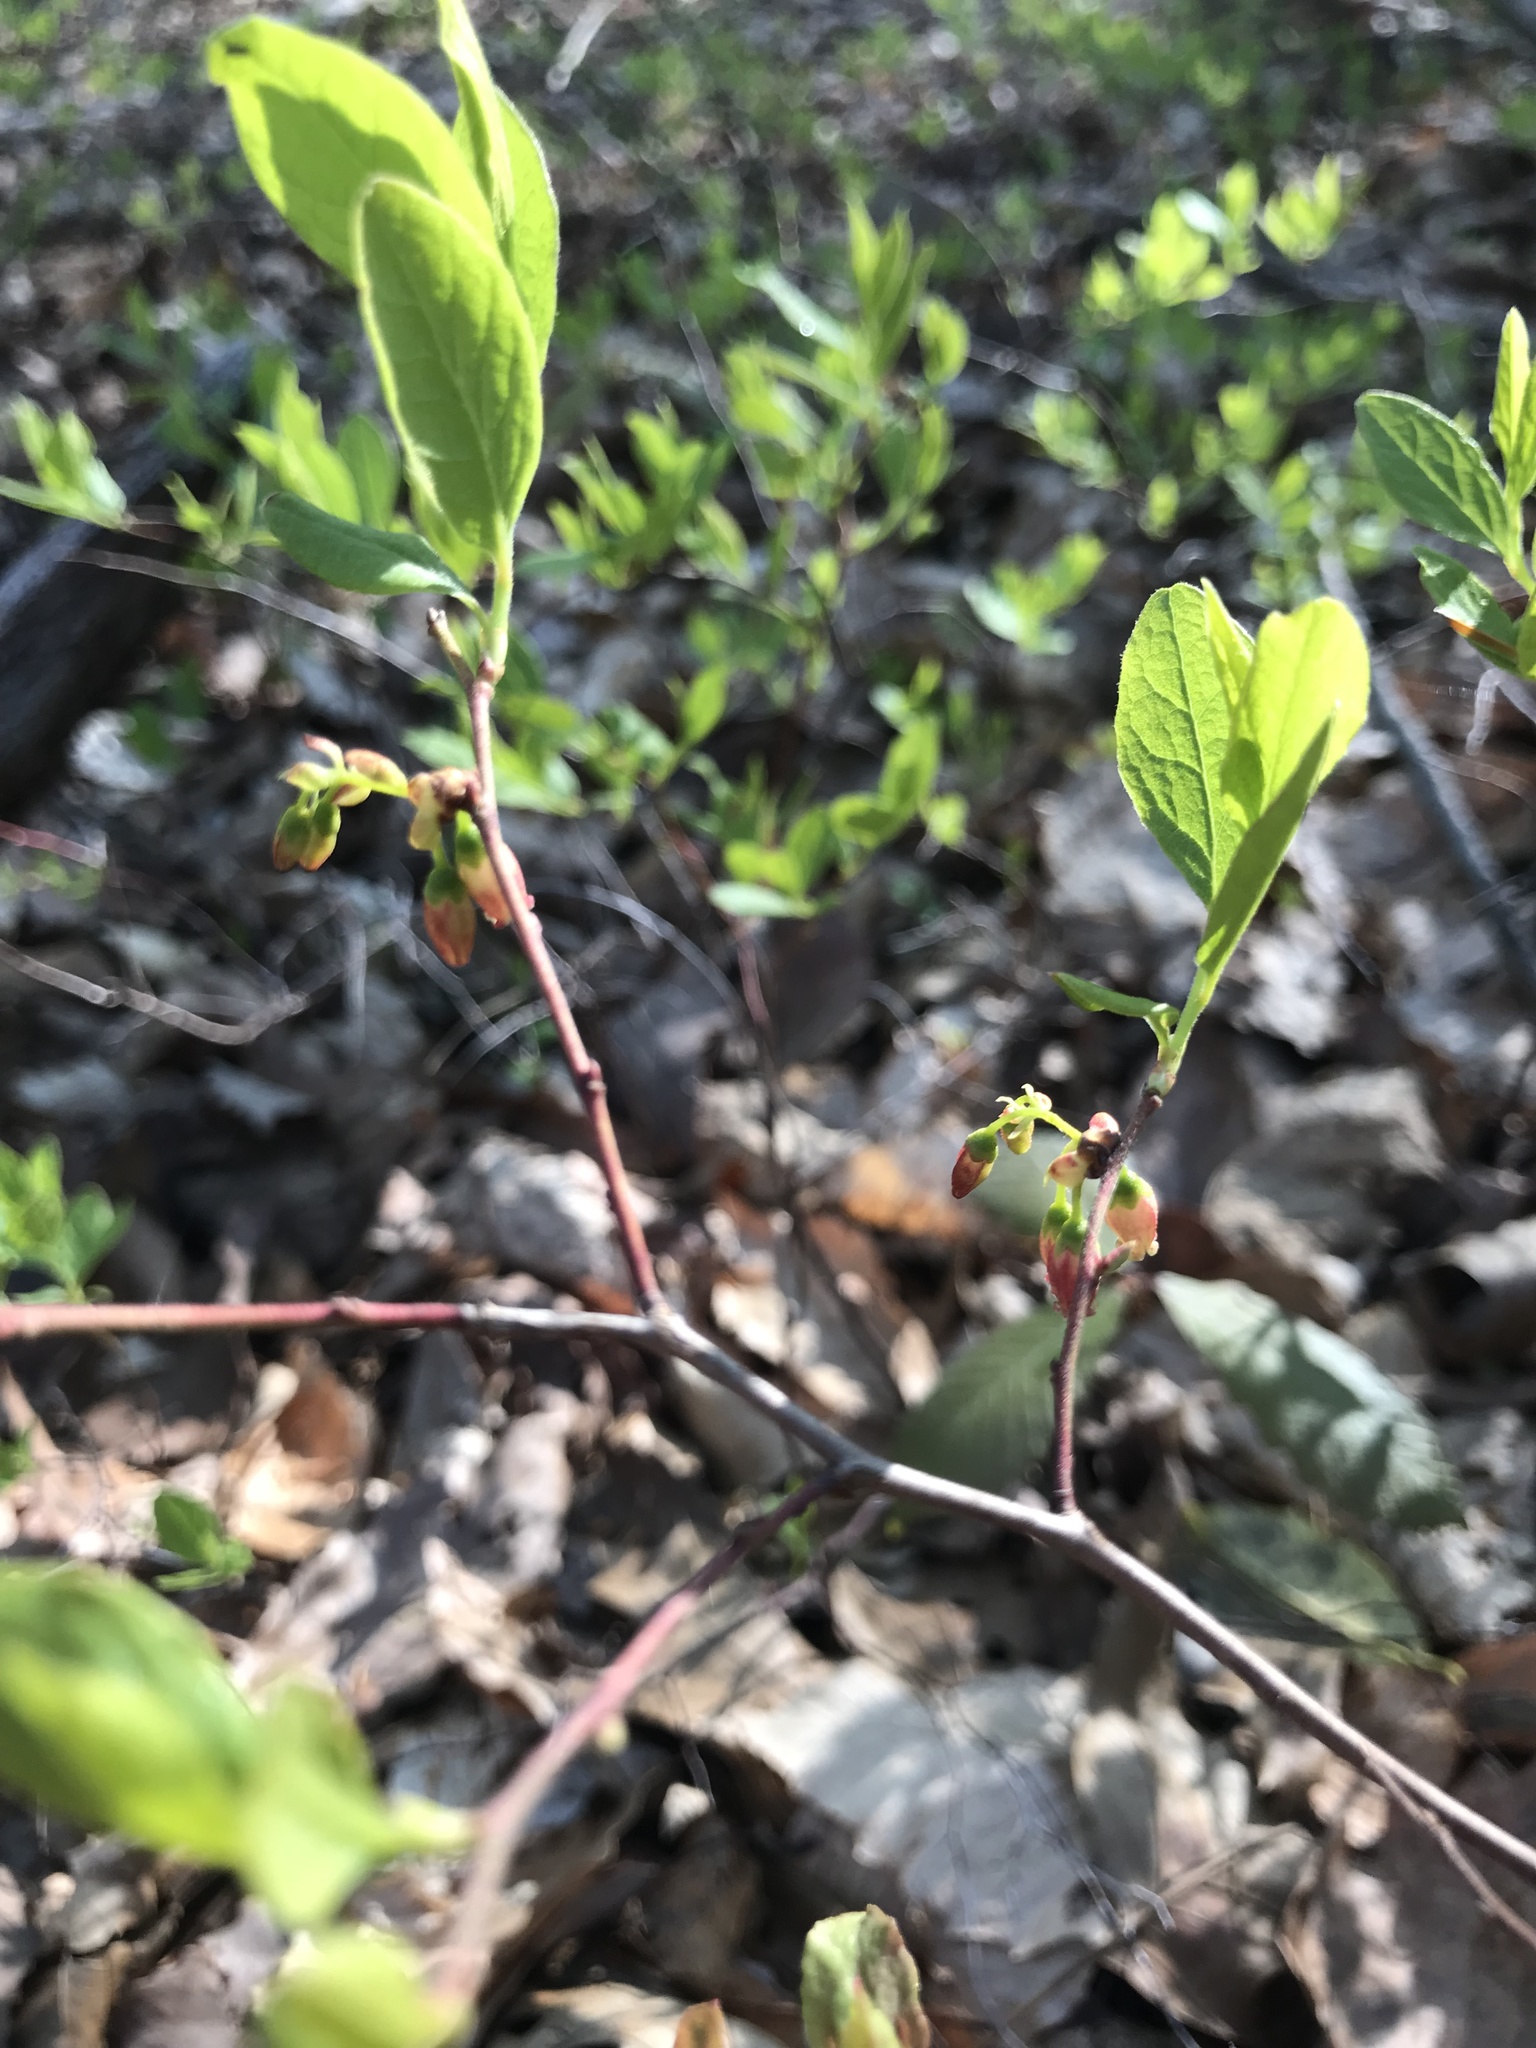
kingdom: Plantae
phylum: Tracheophyta
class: Magnoliopsida
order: Ericales
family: Ericaceae
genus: Gaylussacia
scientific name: Gaylussacia baccata
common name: Black huckleberry
